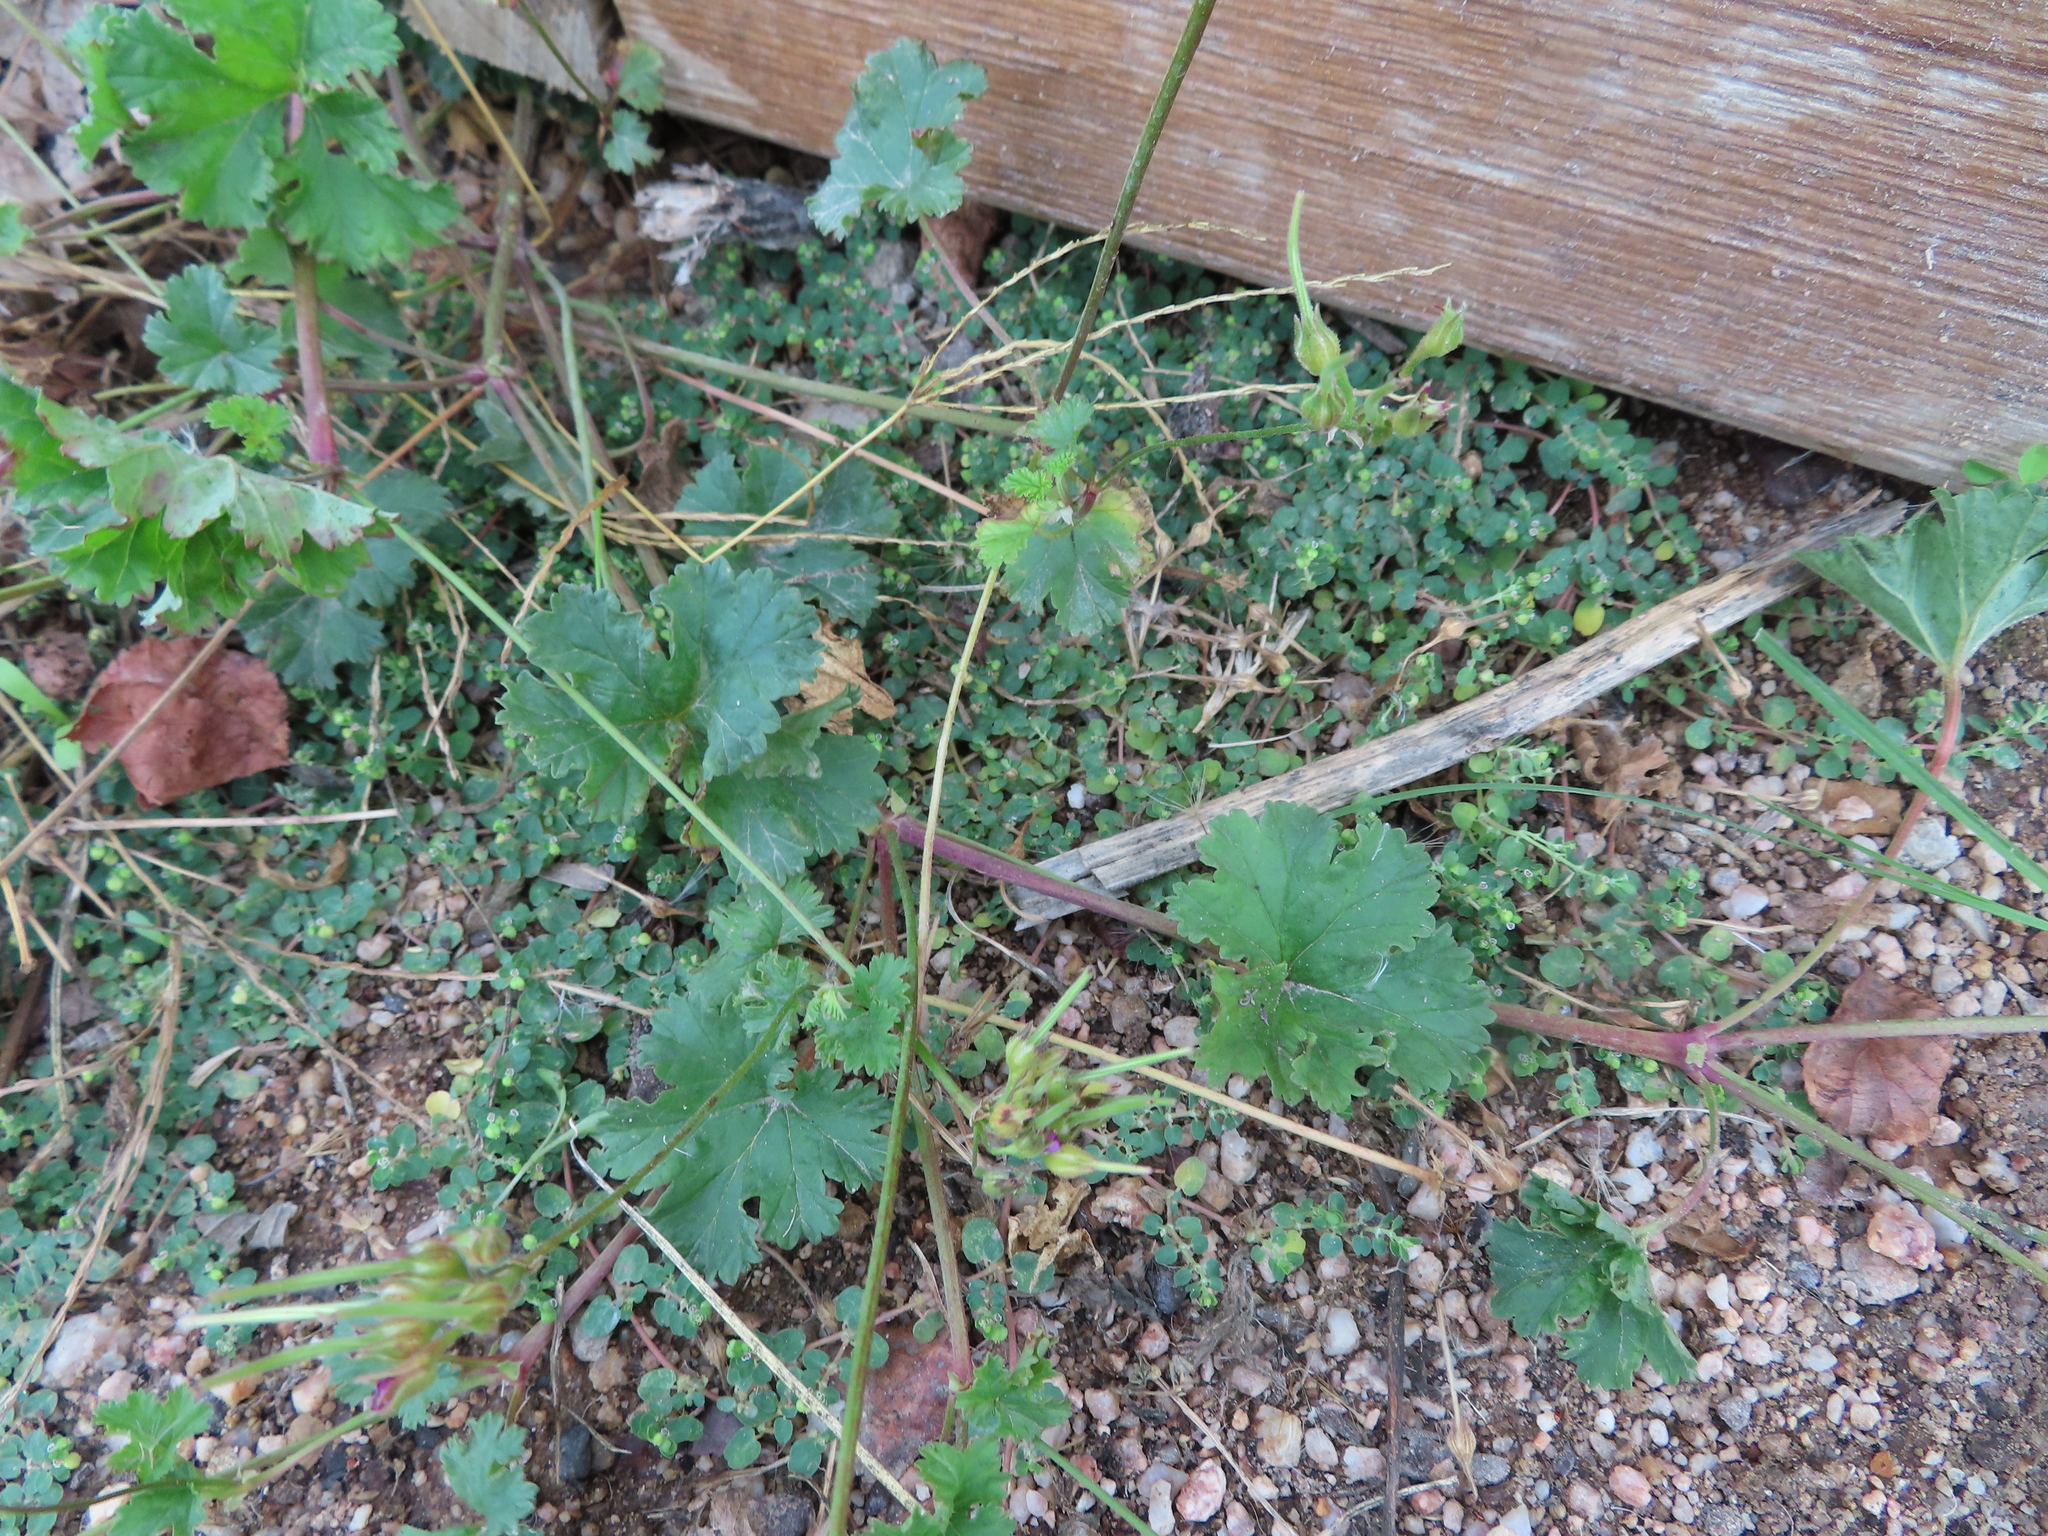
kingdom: Plantae
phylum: Tracheophyta
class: Magnoliopsida
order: Geraniales
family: Geraniaceae
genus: Pelargonium
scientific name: Pelargonium grossularioides
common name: Gooseberry geranium
